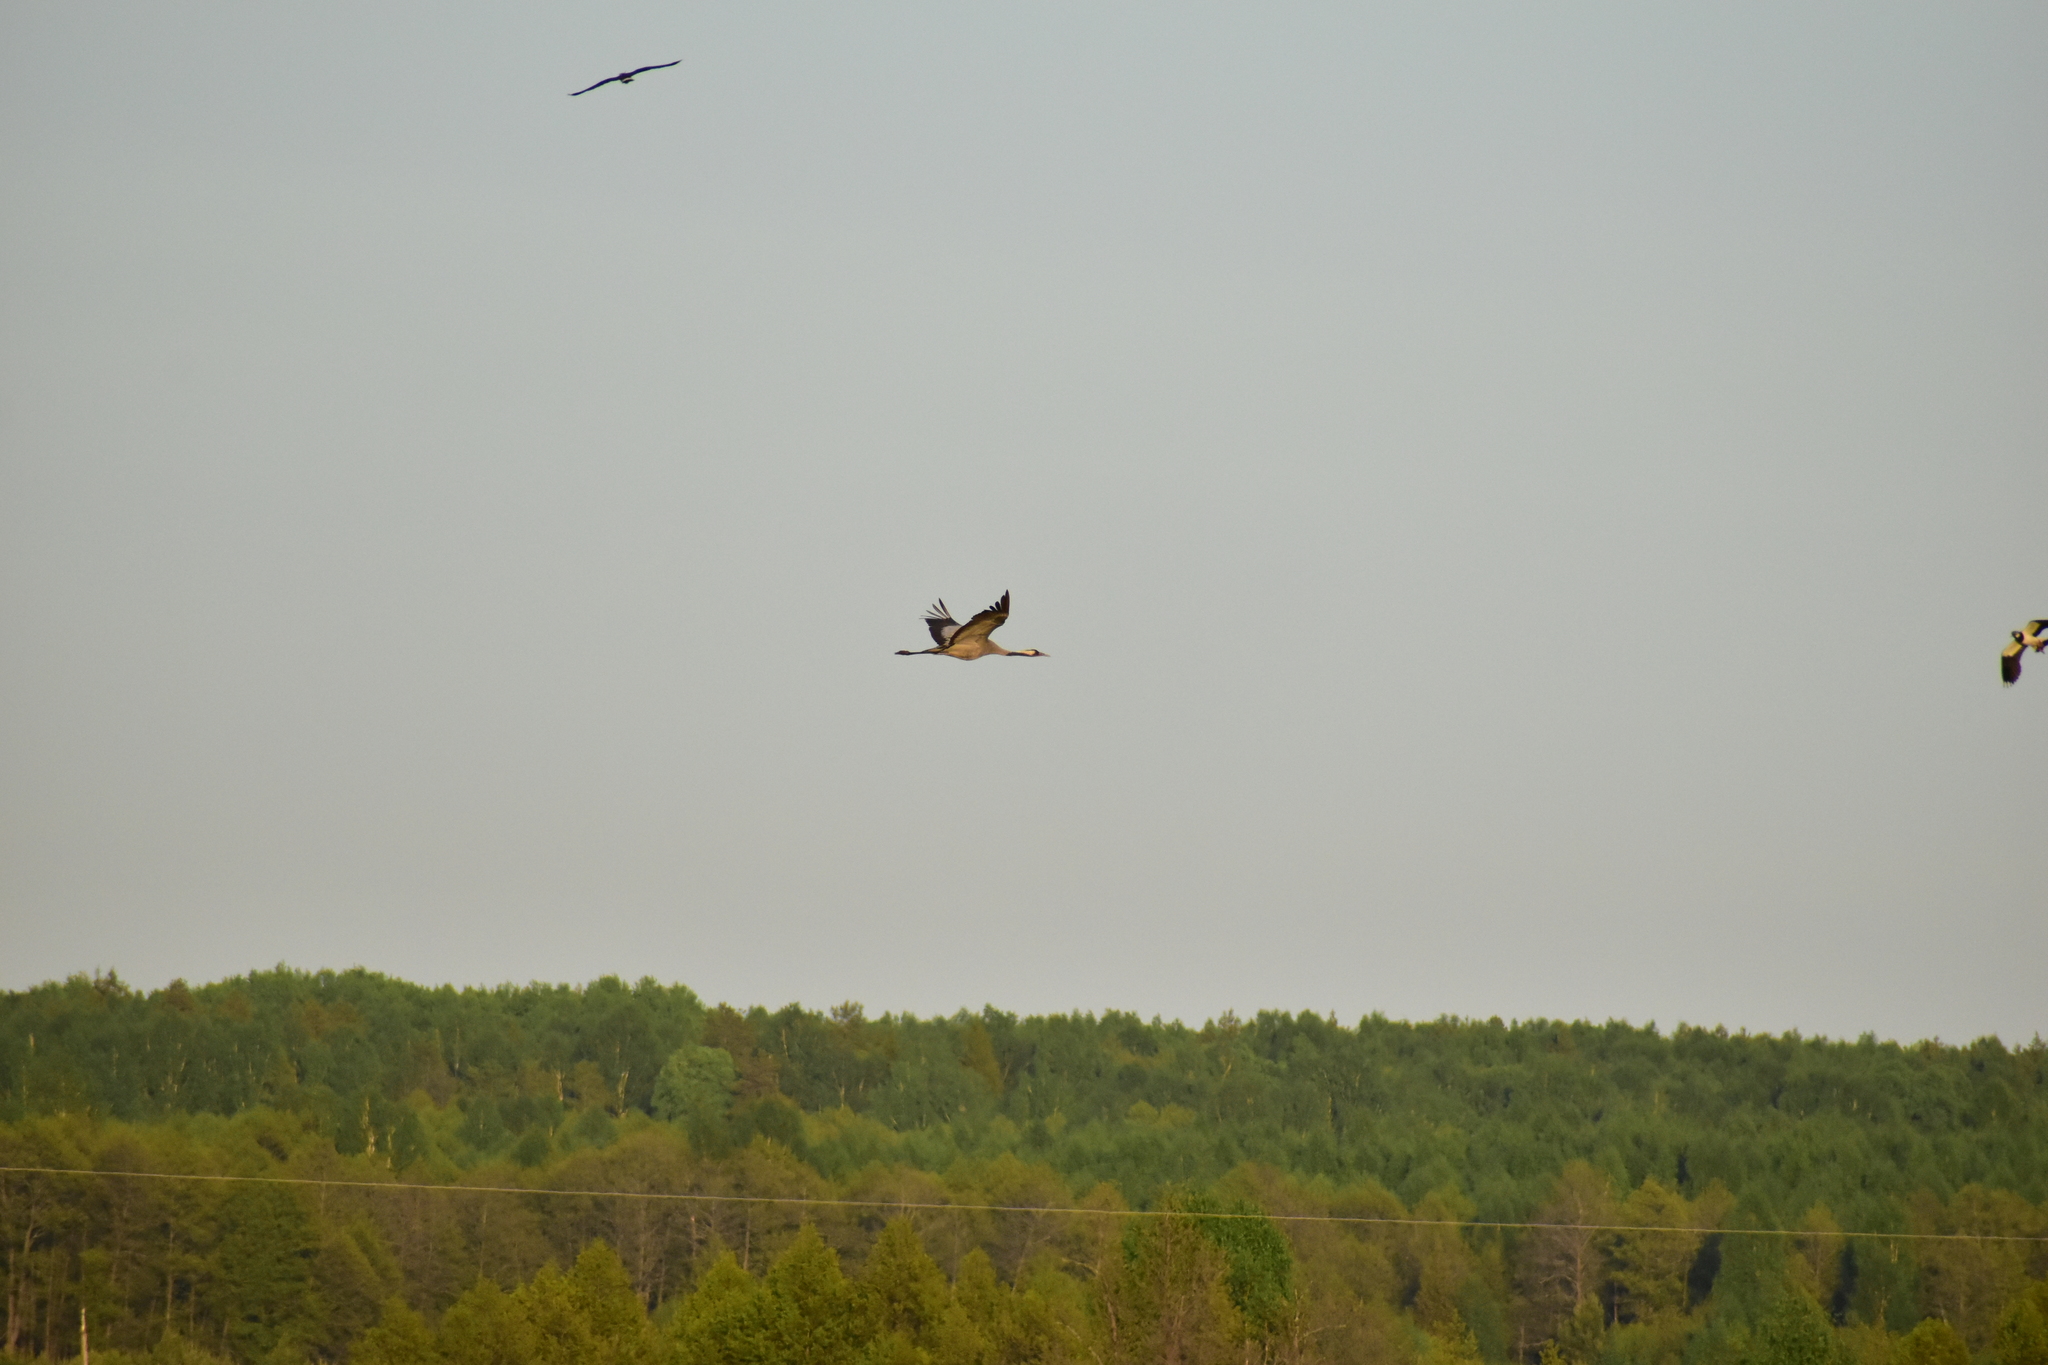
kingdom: Animalia
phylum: Chordata
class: Aves
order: Gruiformes
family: Gruidae
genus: Grus
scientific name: Grus grus
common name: Common crane
